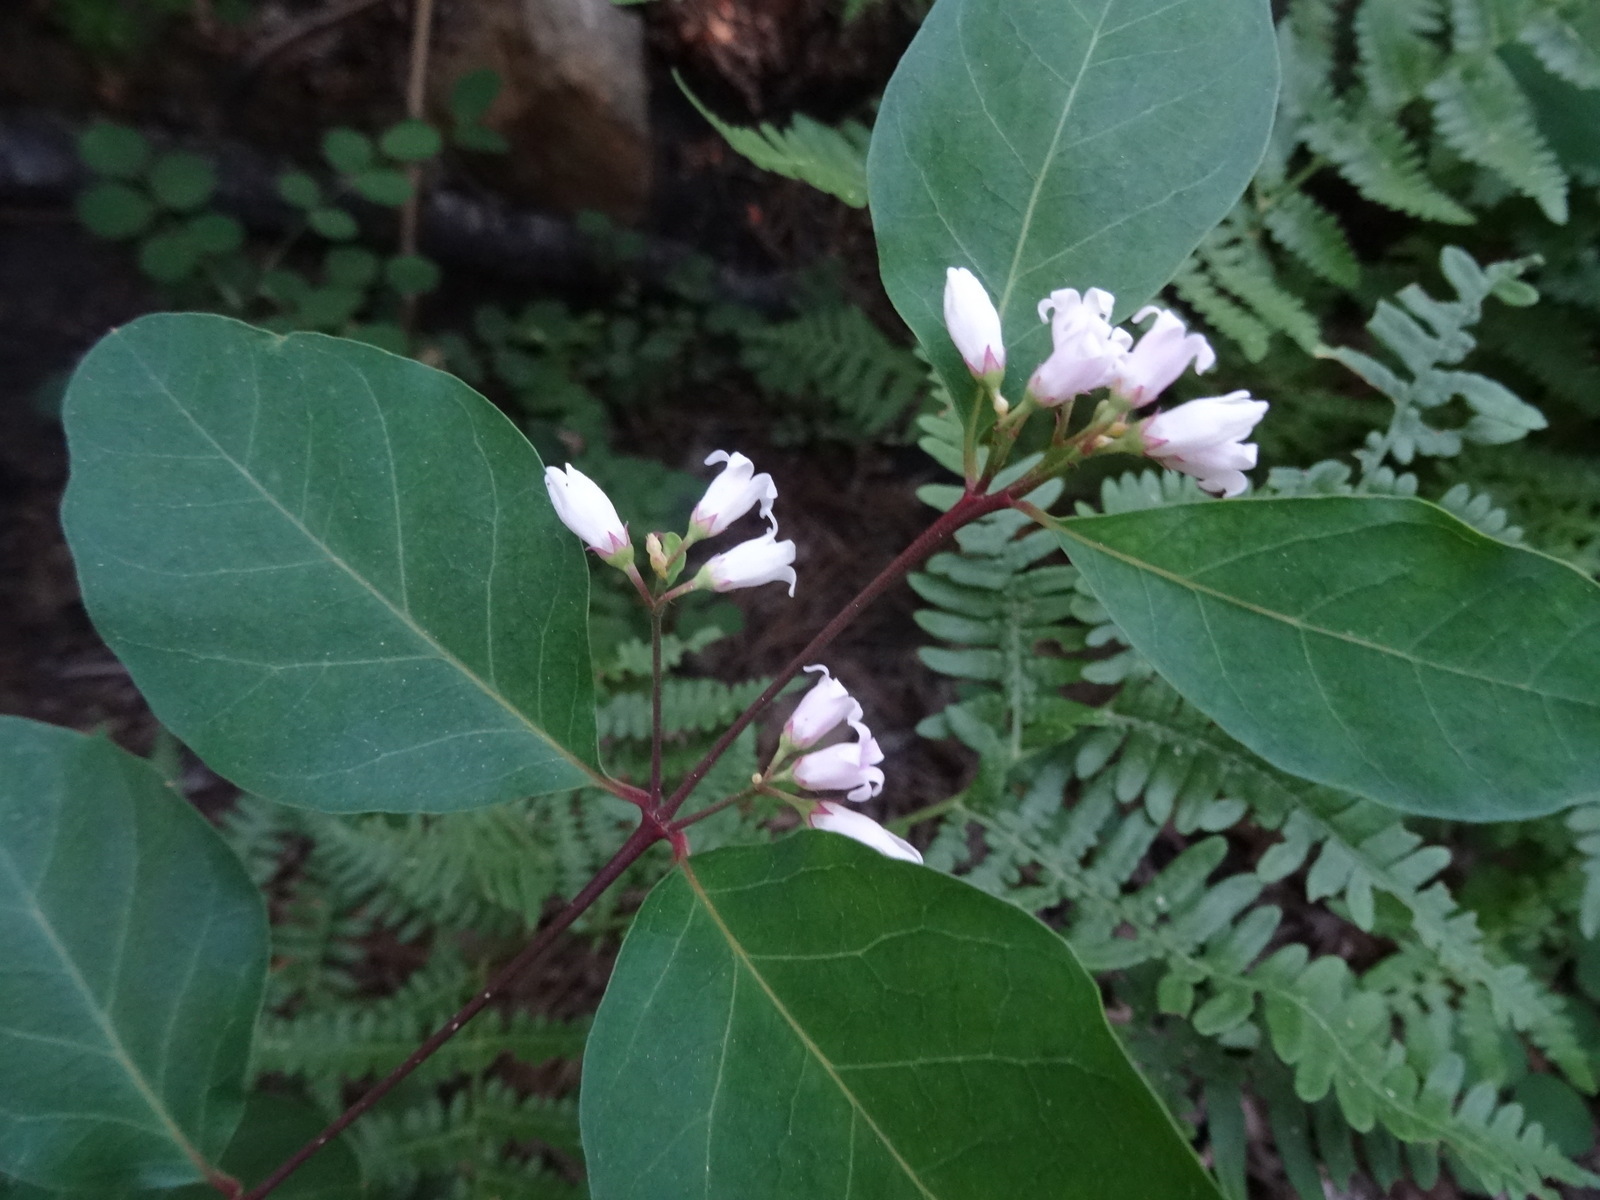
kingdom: Plantae
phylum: Tracheophyta
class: Magnoliopsida
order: Gentianales
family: Apocynaceae
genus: Apocynum
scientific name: Apocynum androsaemifolium
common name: Spreading dogbane
